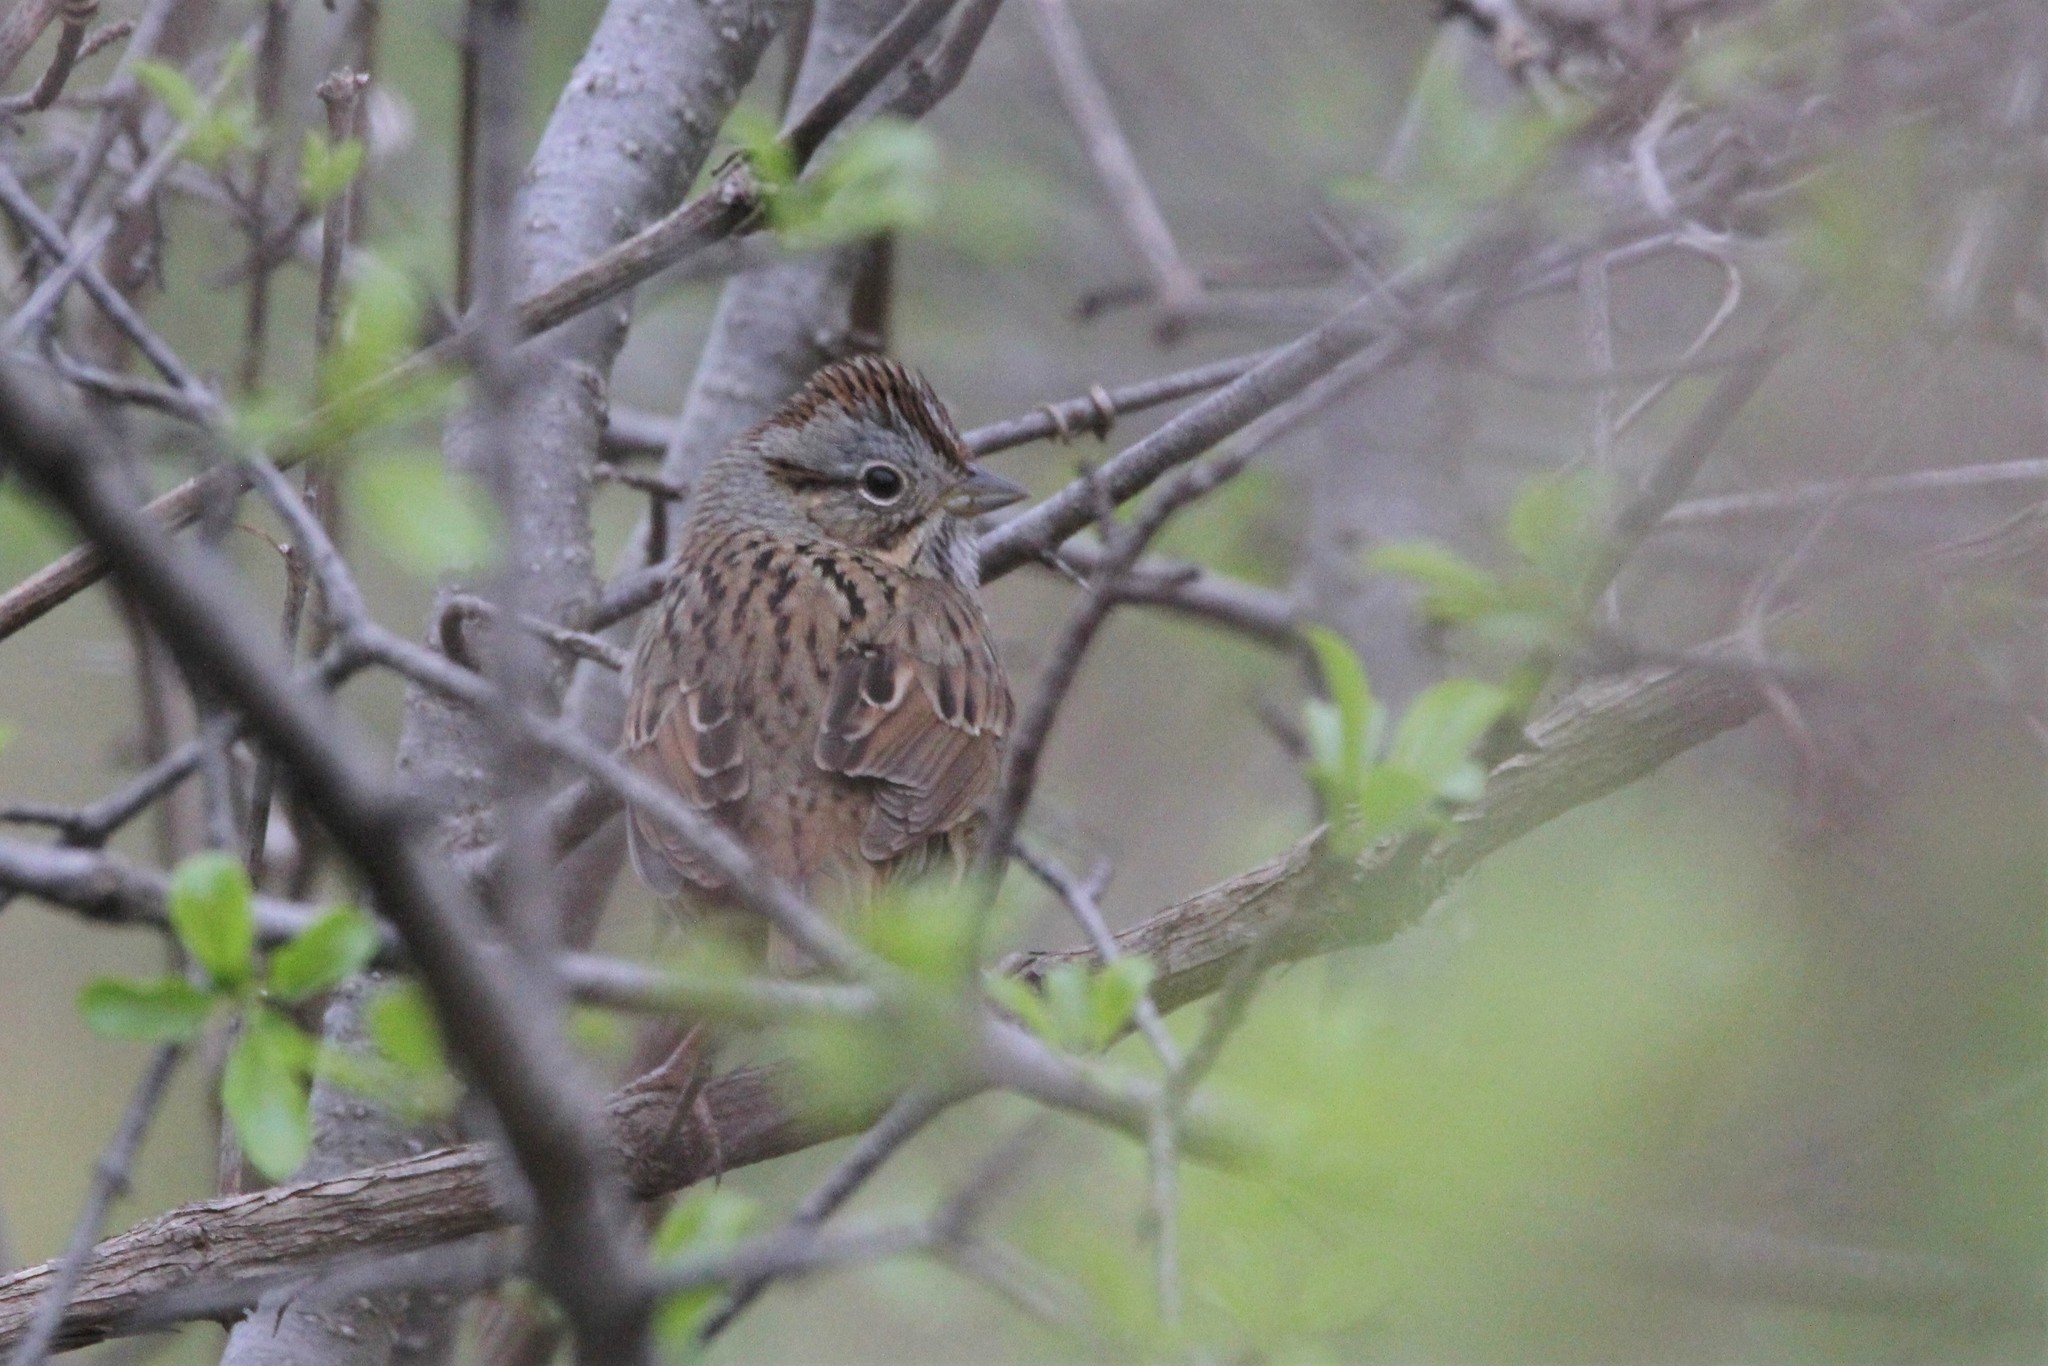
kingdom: Animalia
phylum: Chordata
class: Aves
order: Passeriformes
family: Passerellidae
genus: Melospiza
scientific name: Melospiza lincolnii
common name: Lincoln's sparrow
